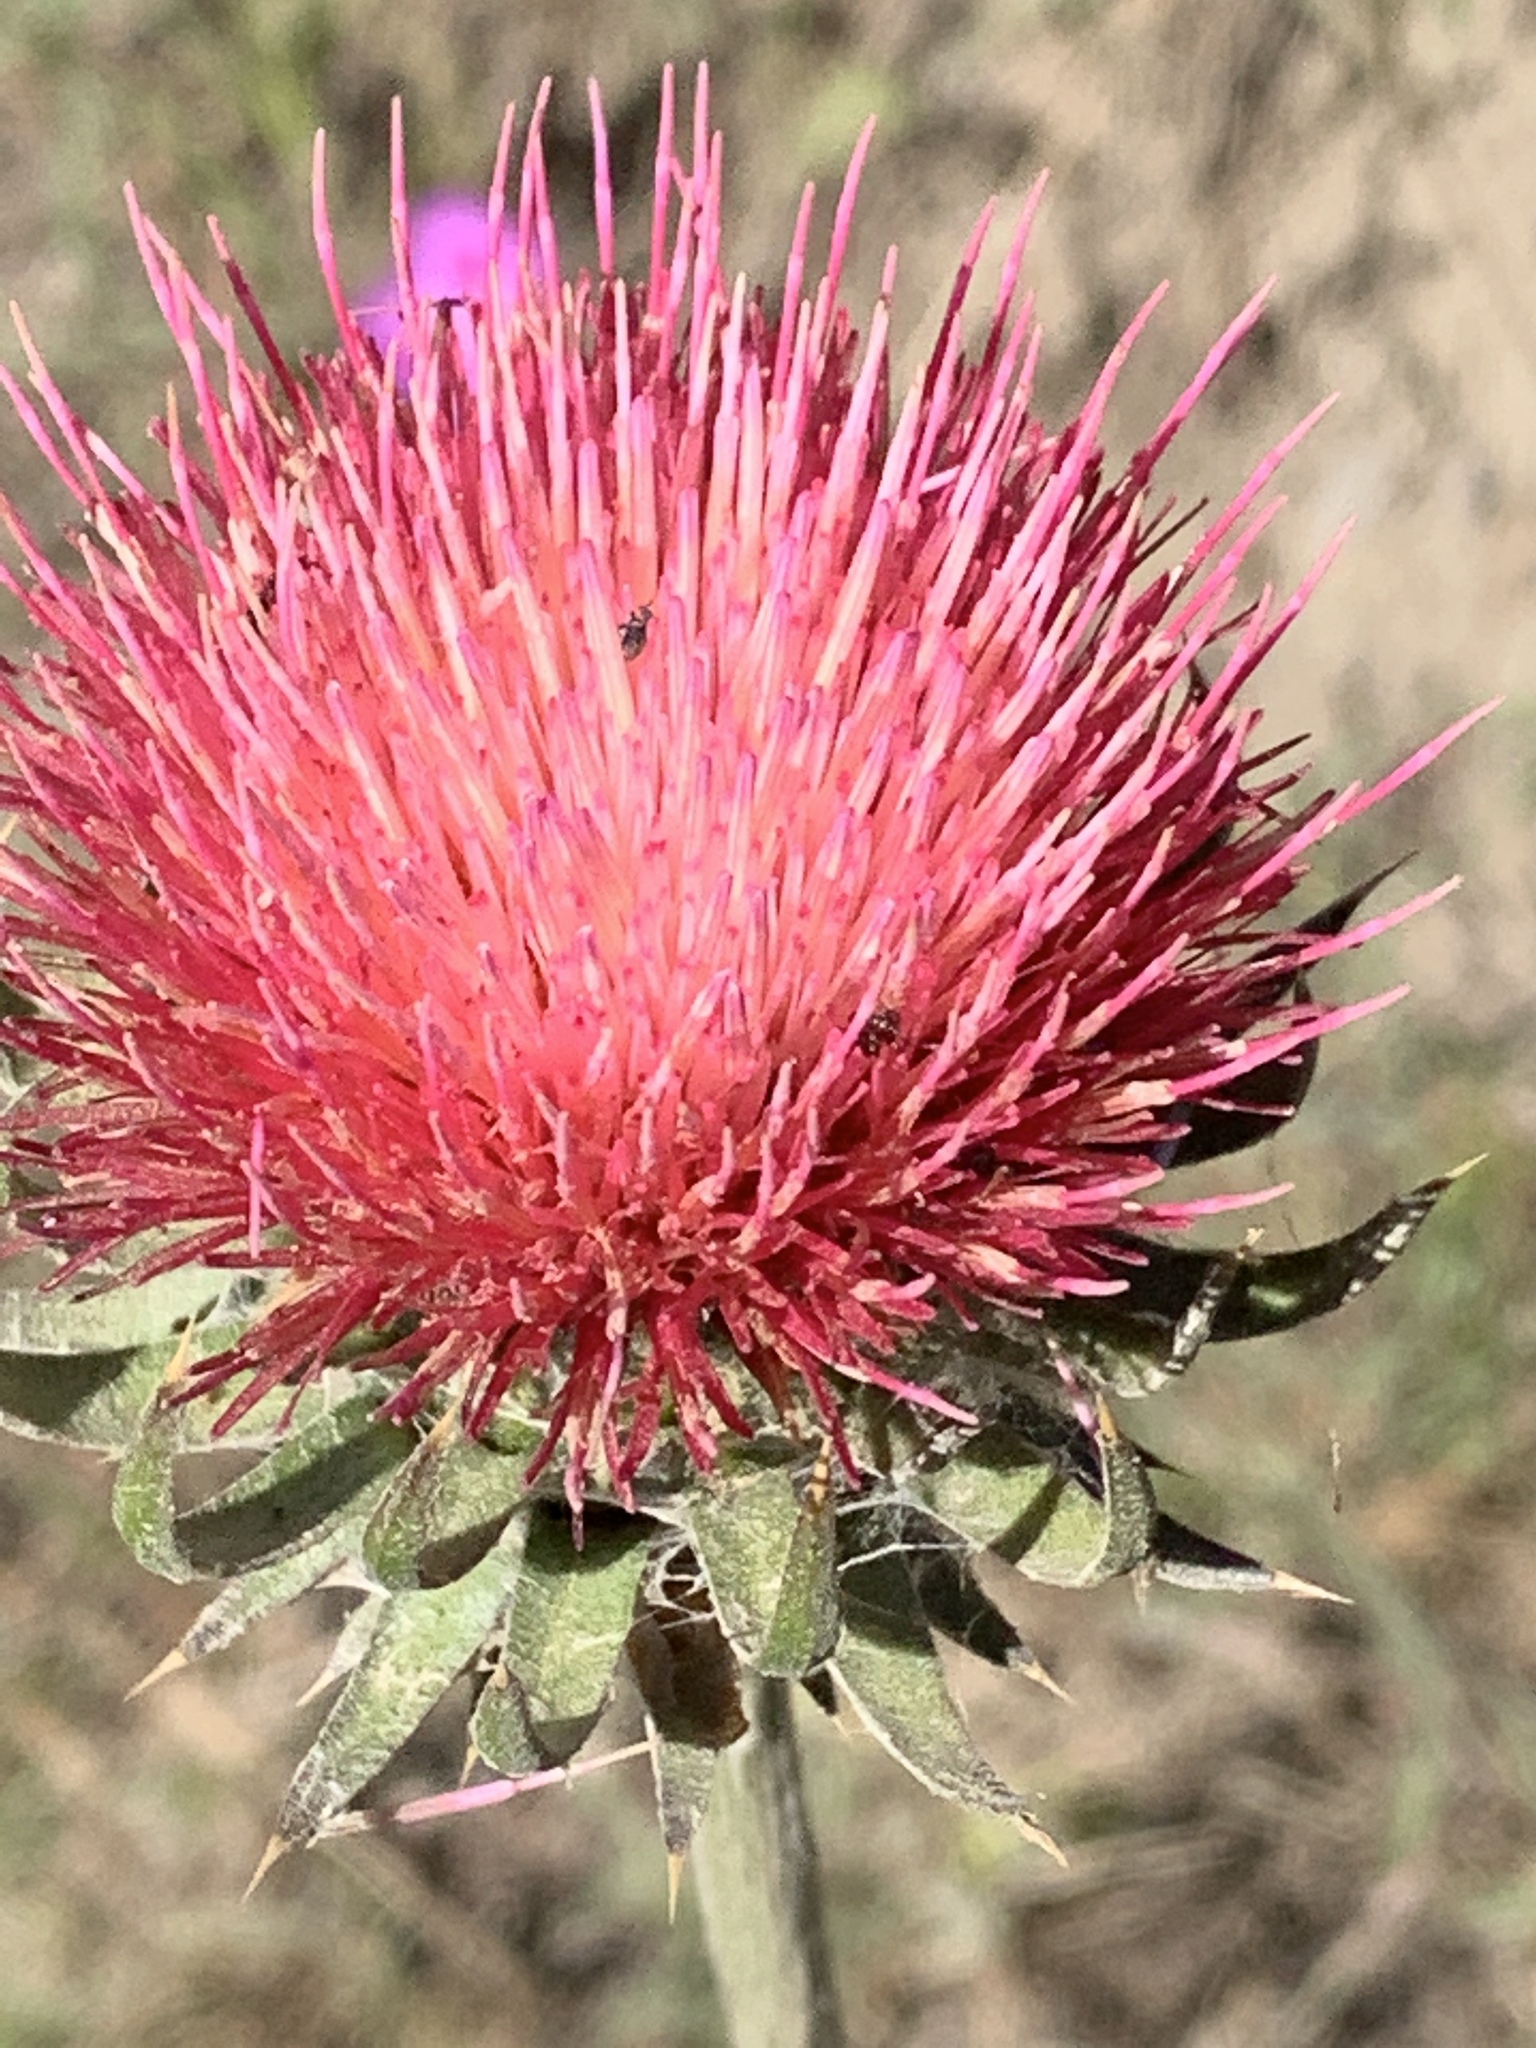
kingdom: Plantae
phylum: Tracheophyta
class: Magnoliopsida
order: Asterales
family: Asteraceae
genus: Cirsium
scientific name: Cirsium occidentale
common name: Western thistle
